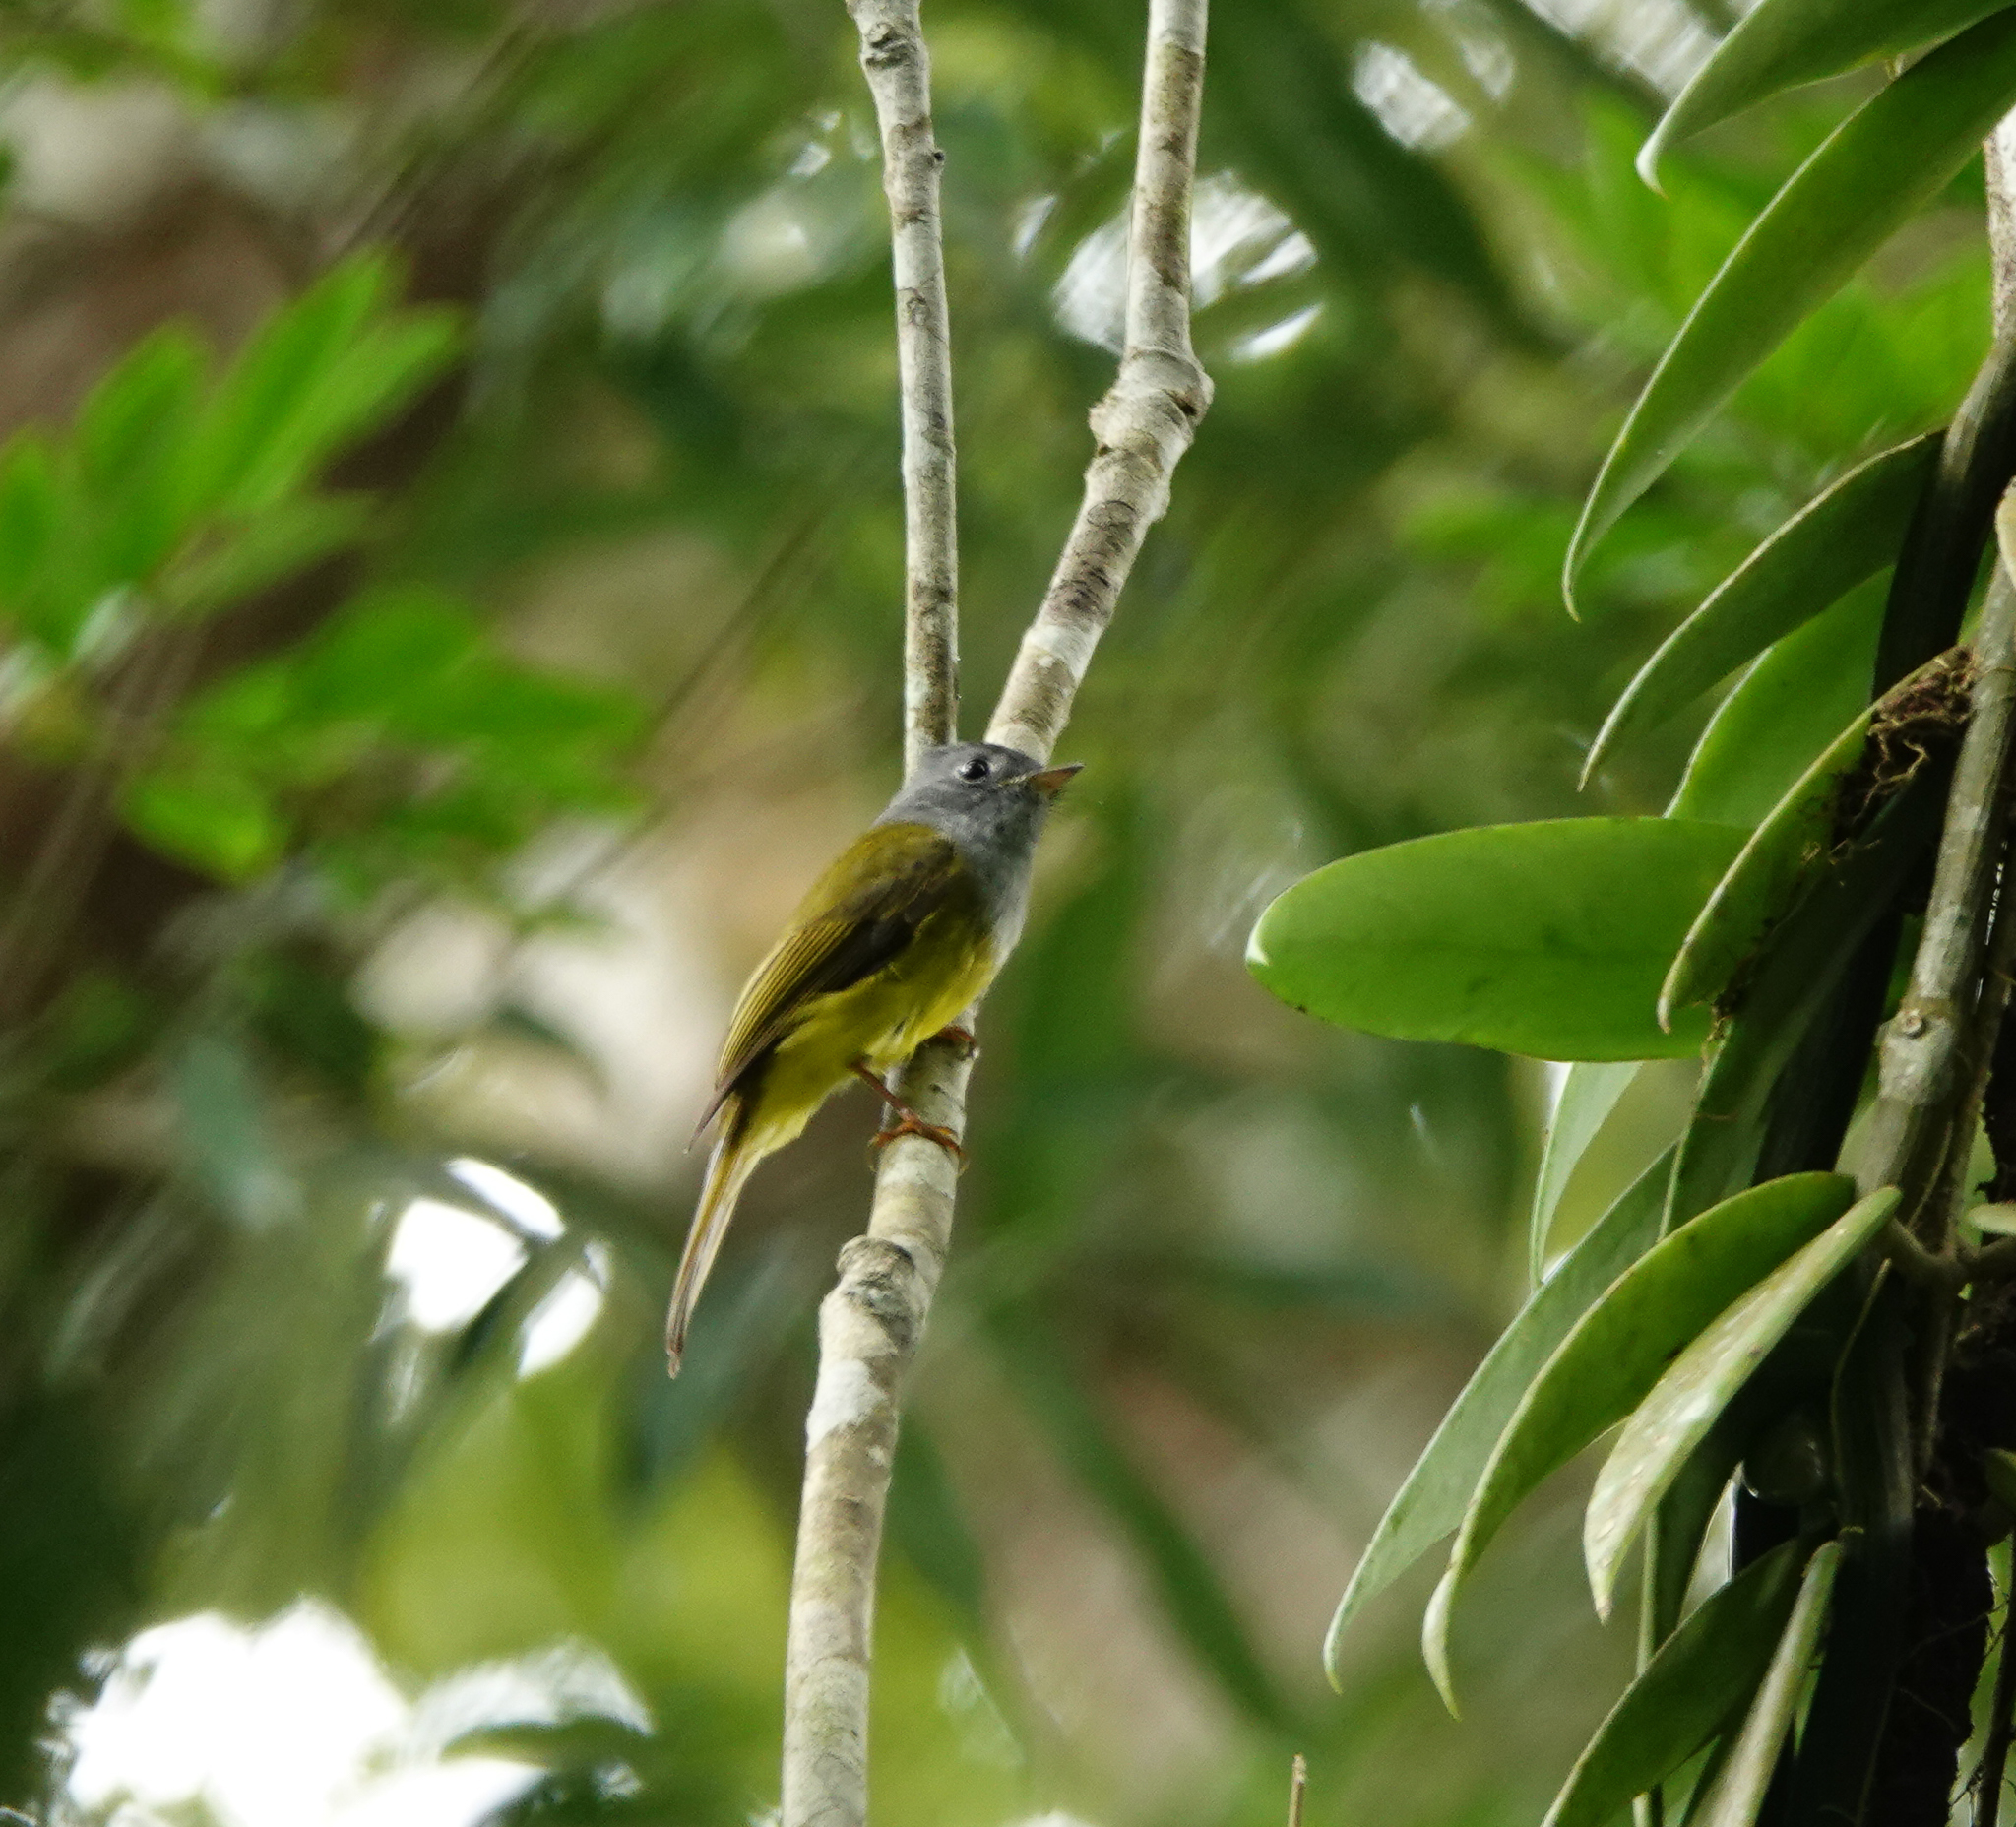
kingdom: Animalia
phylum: Chordata
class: Aves
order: Passeriformes
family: Stenostiridae
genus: Culicicapa
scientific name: Culicicapa ceylonensis
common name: Grey-headed canary-flycatcher
